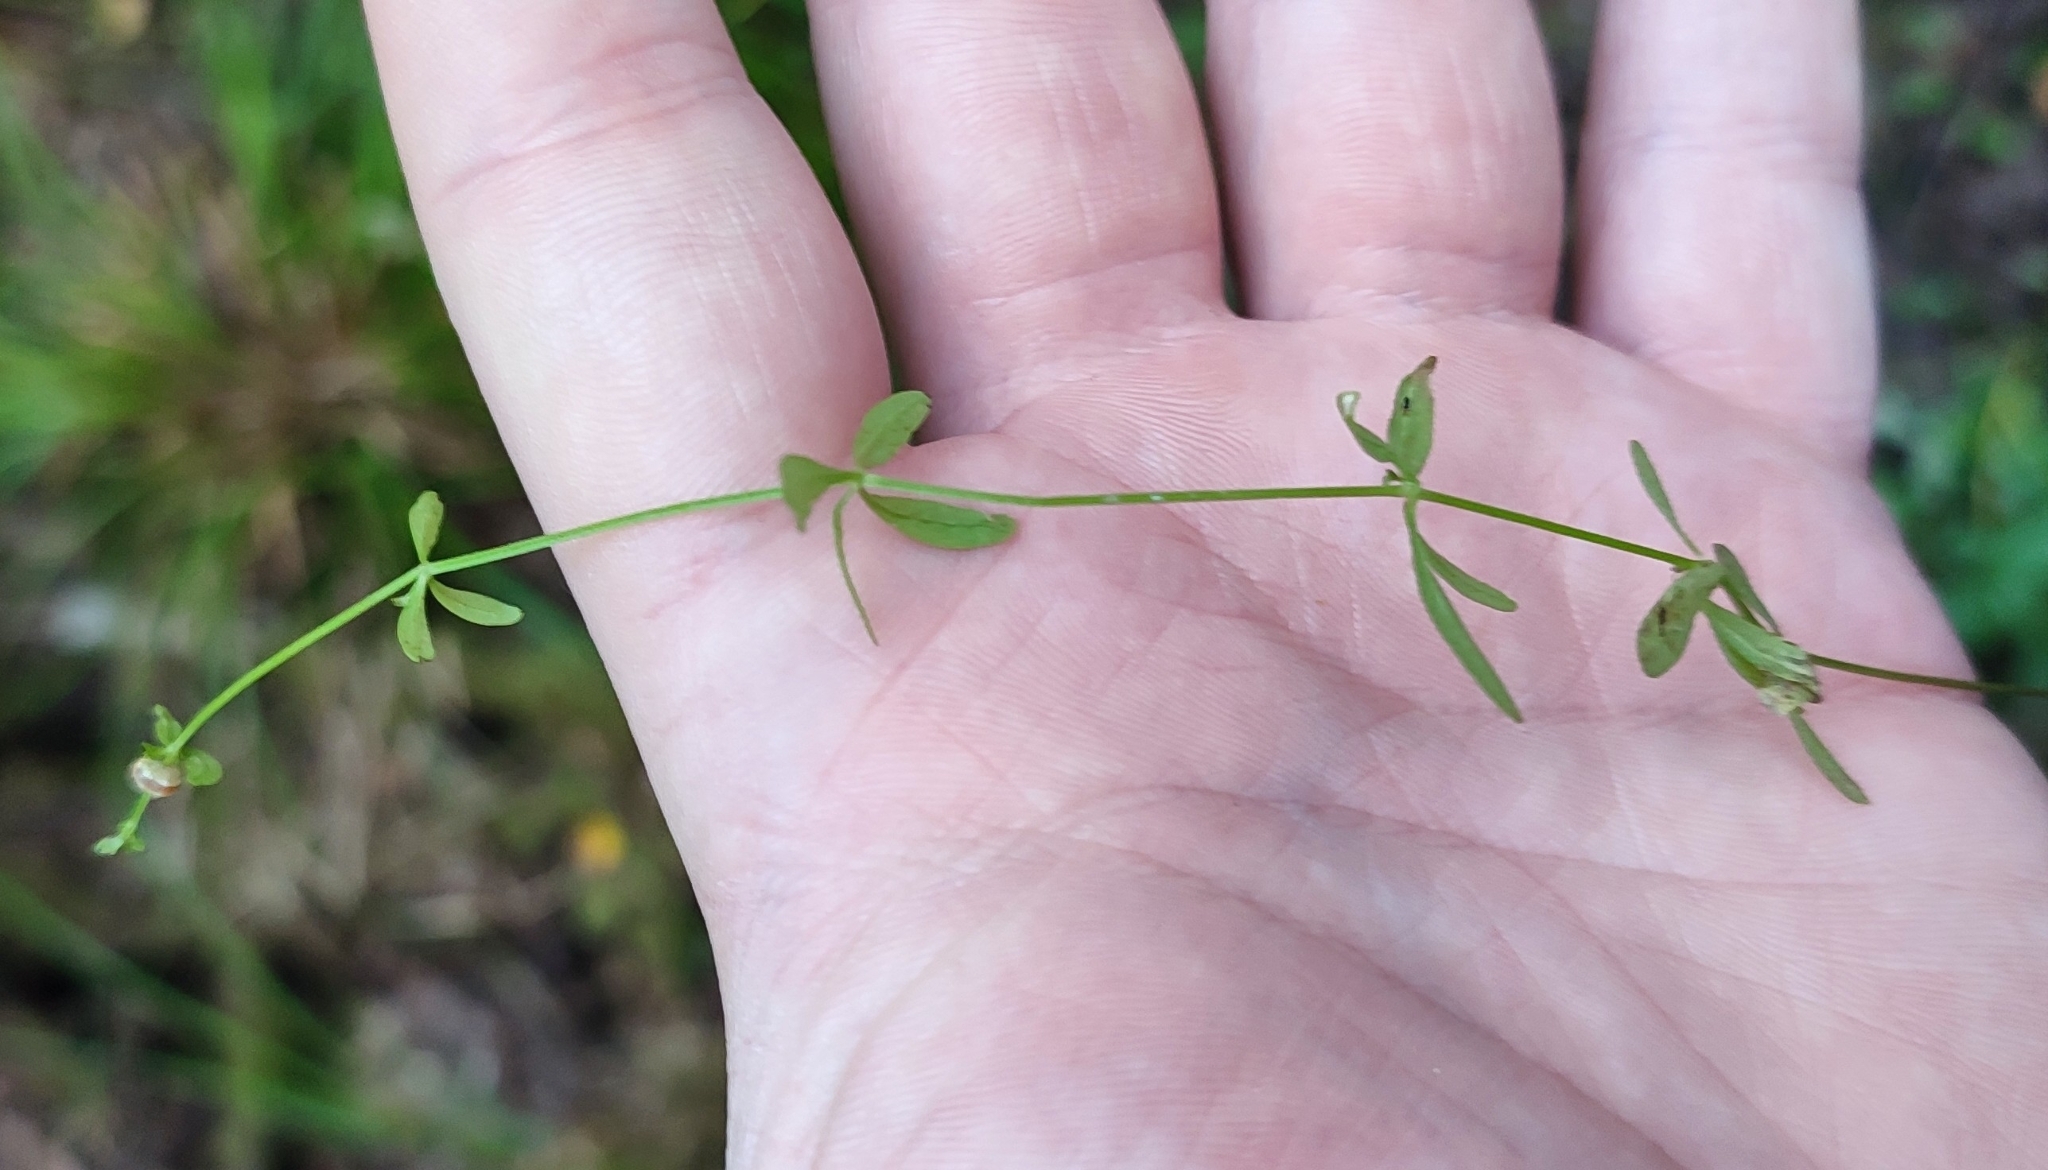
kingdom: Plantae
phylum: Tracheophyta
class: Magnoliopsida
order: Gentianales
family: Rubiaceae
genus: Galium
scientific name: Galium trifidum
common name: Small bedstraw
